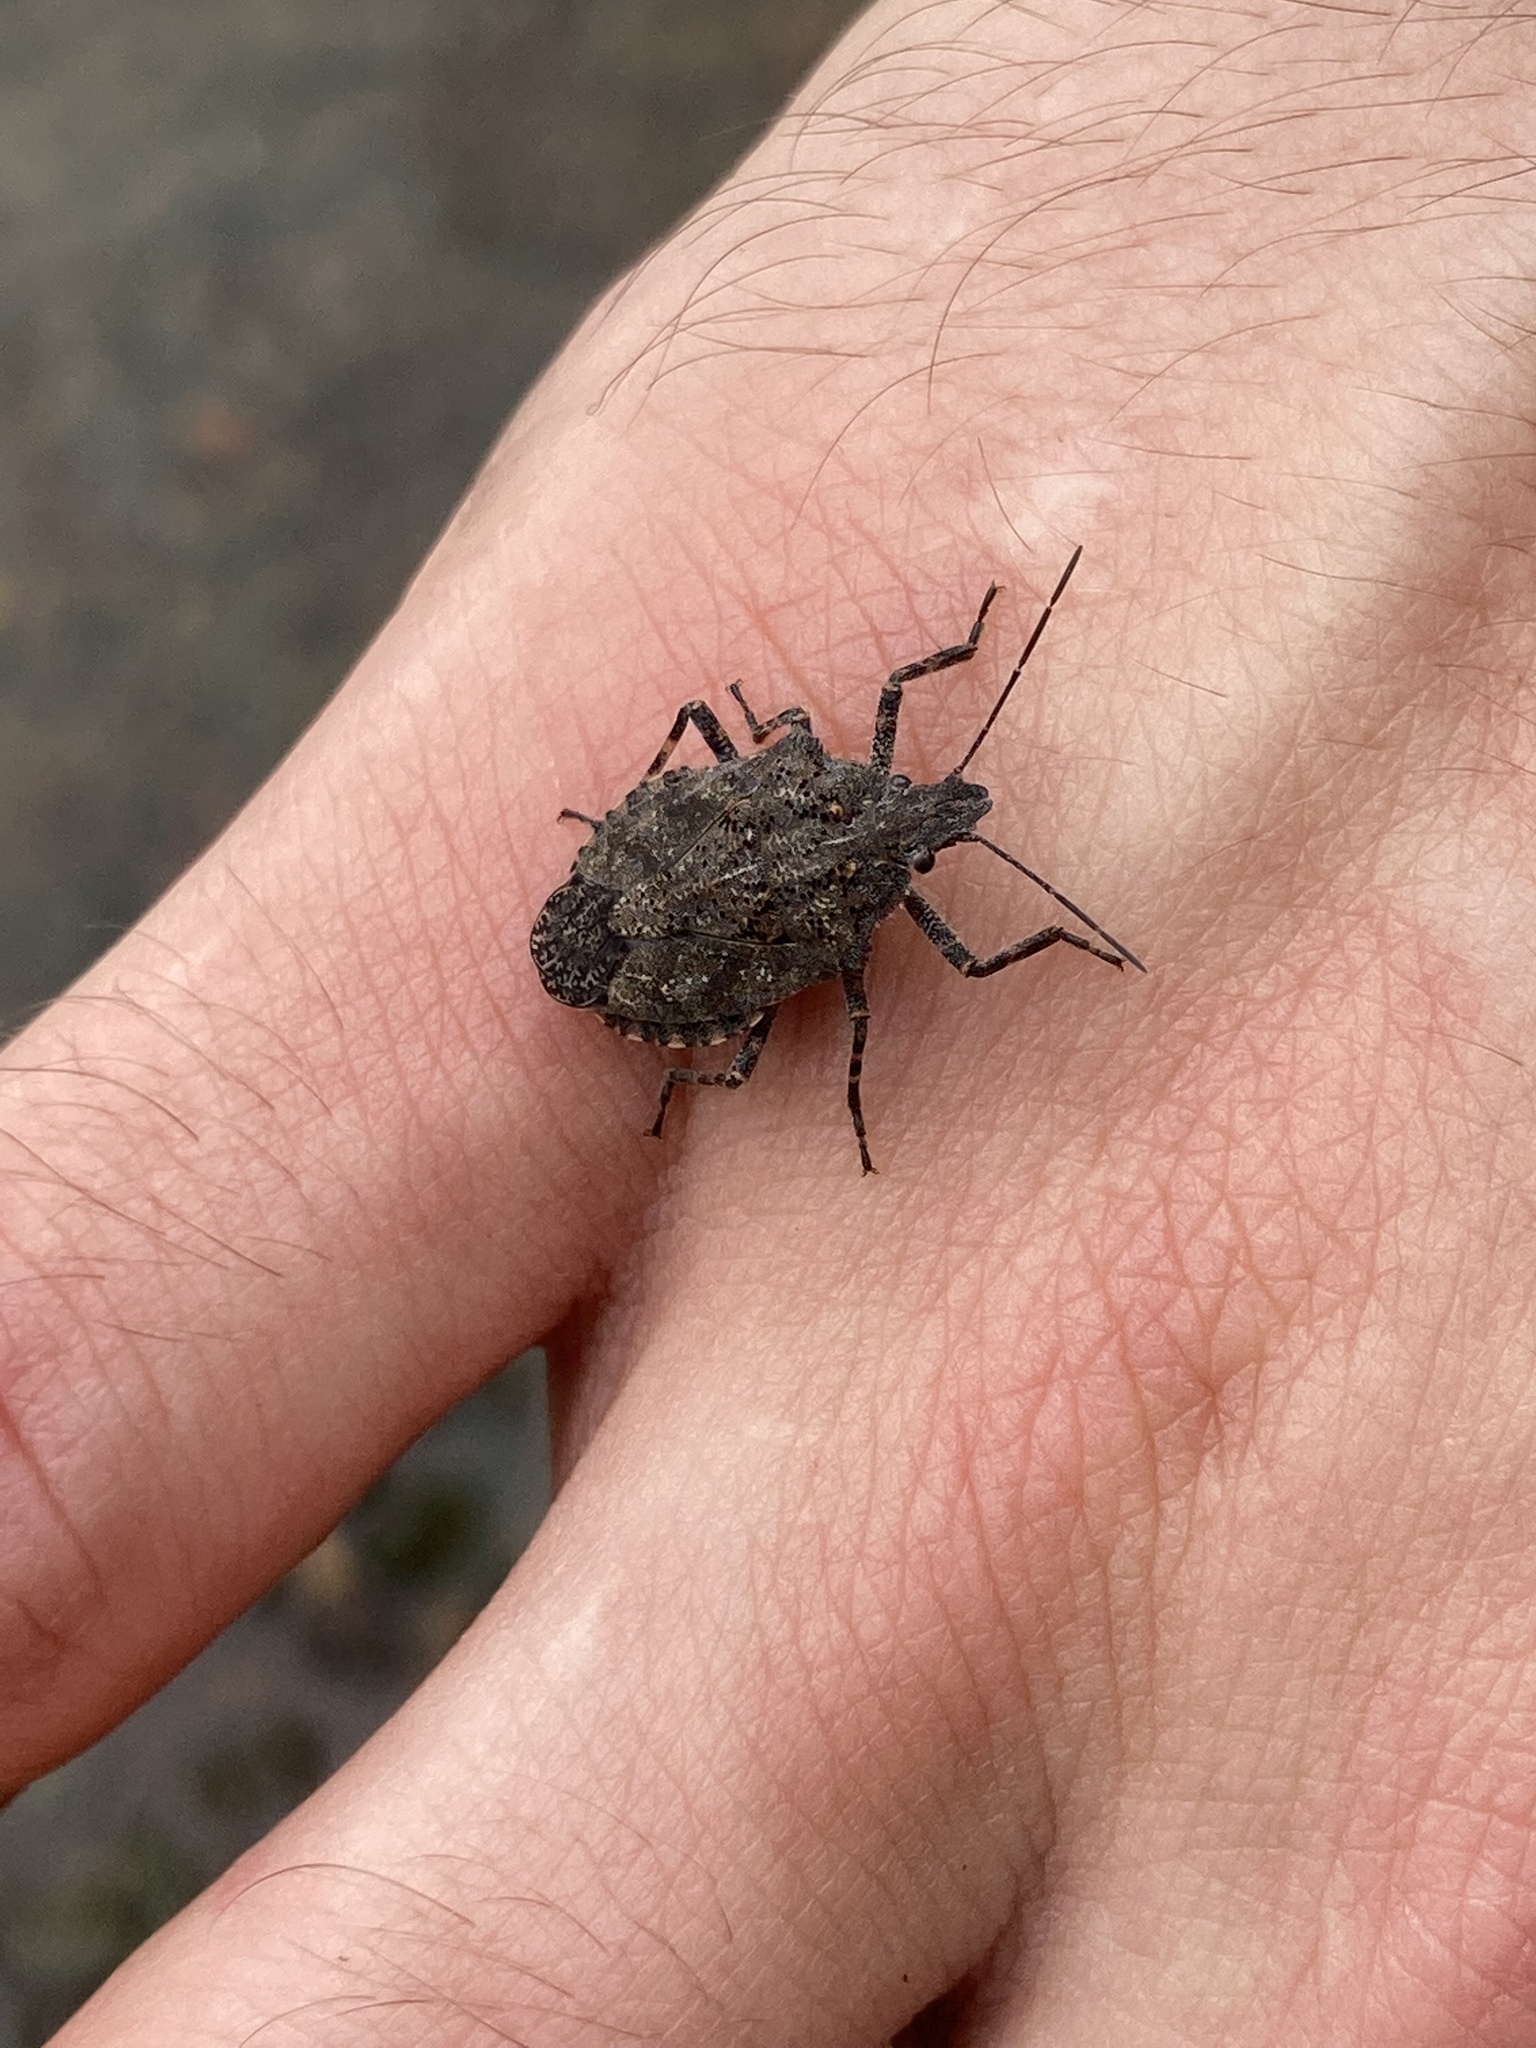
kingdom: Animalia
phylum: Arthropoda
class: Insecta
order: Hemiptera
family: Pentatomidae
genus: Brochymena
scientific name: Brochymena quadripustulata
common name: Four-humped stink bug
